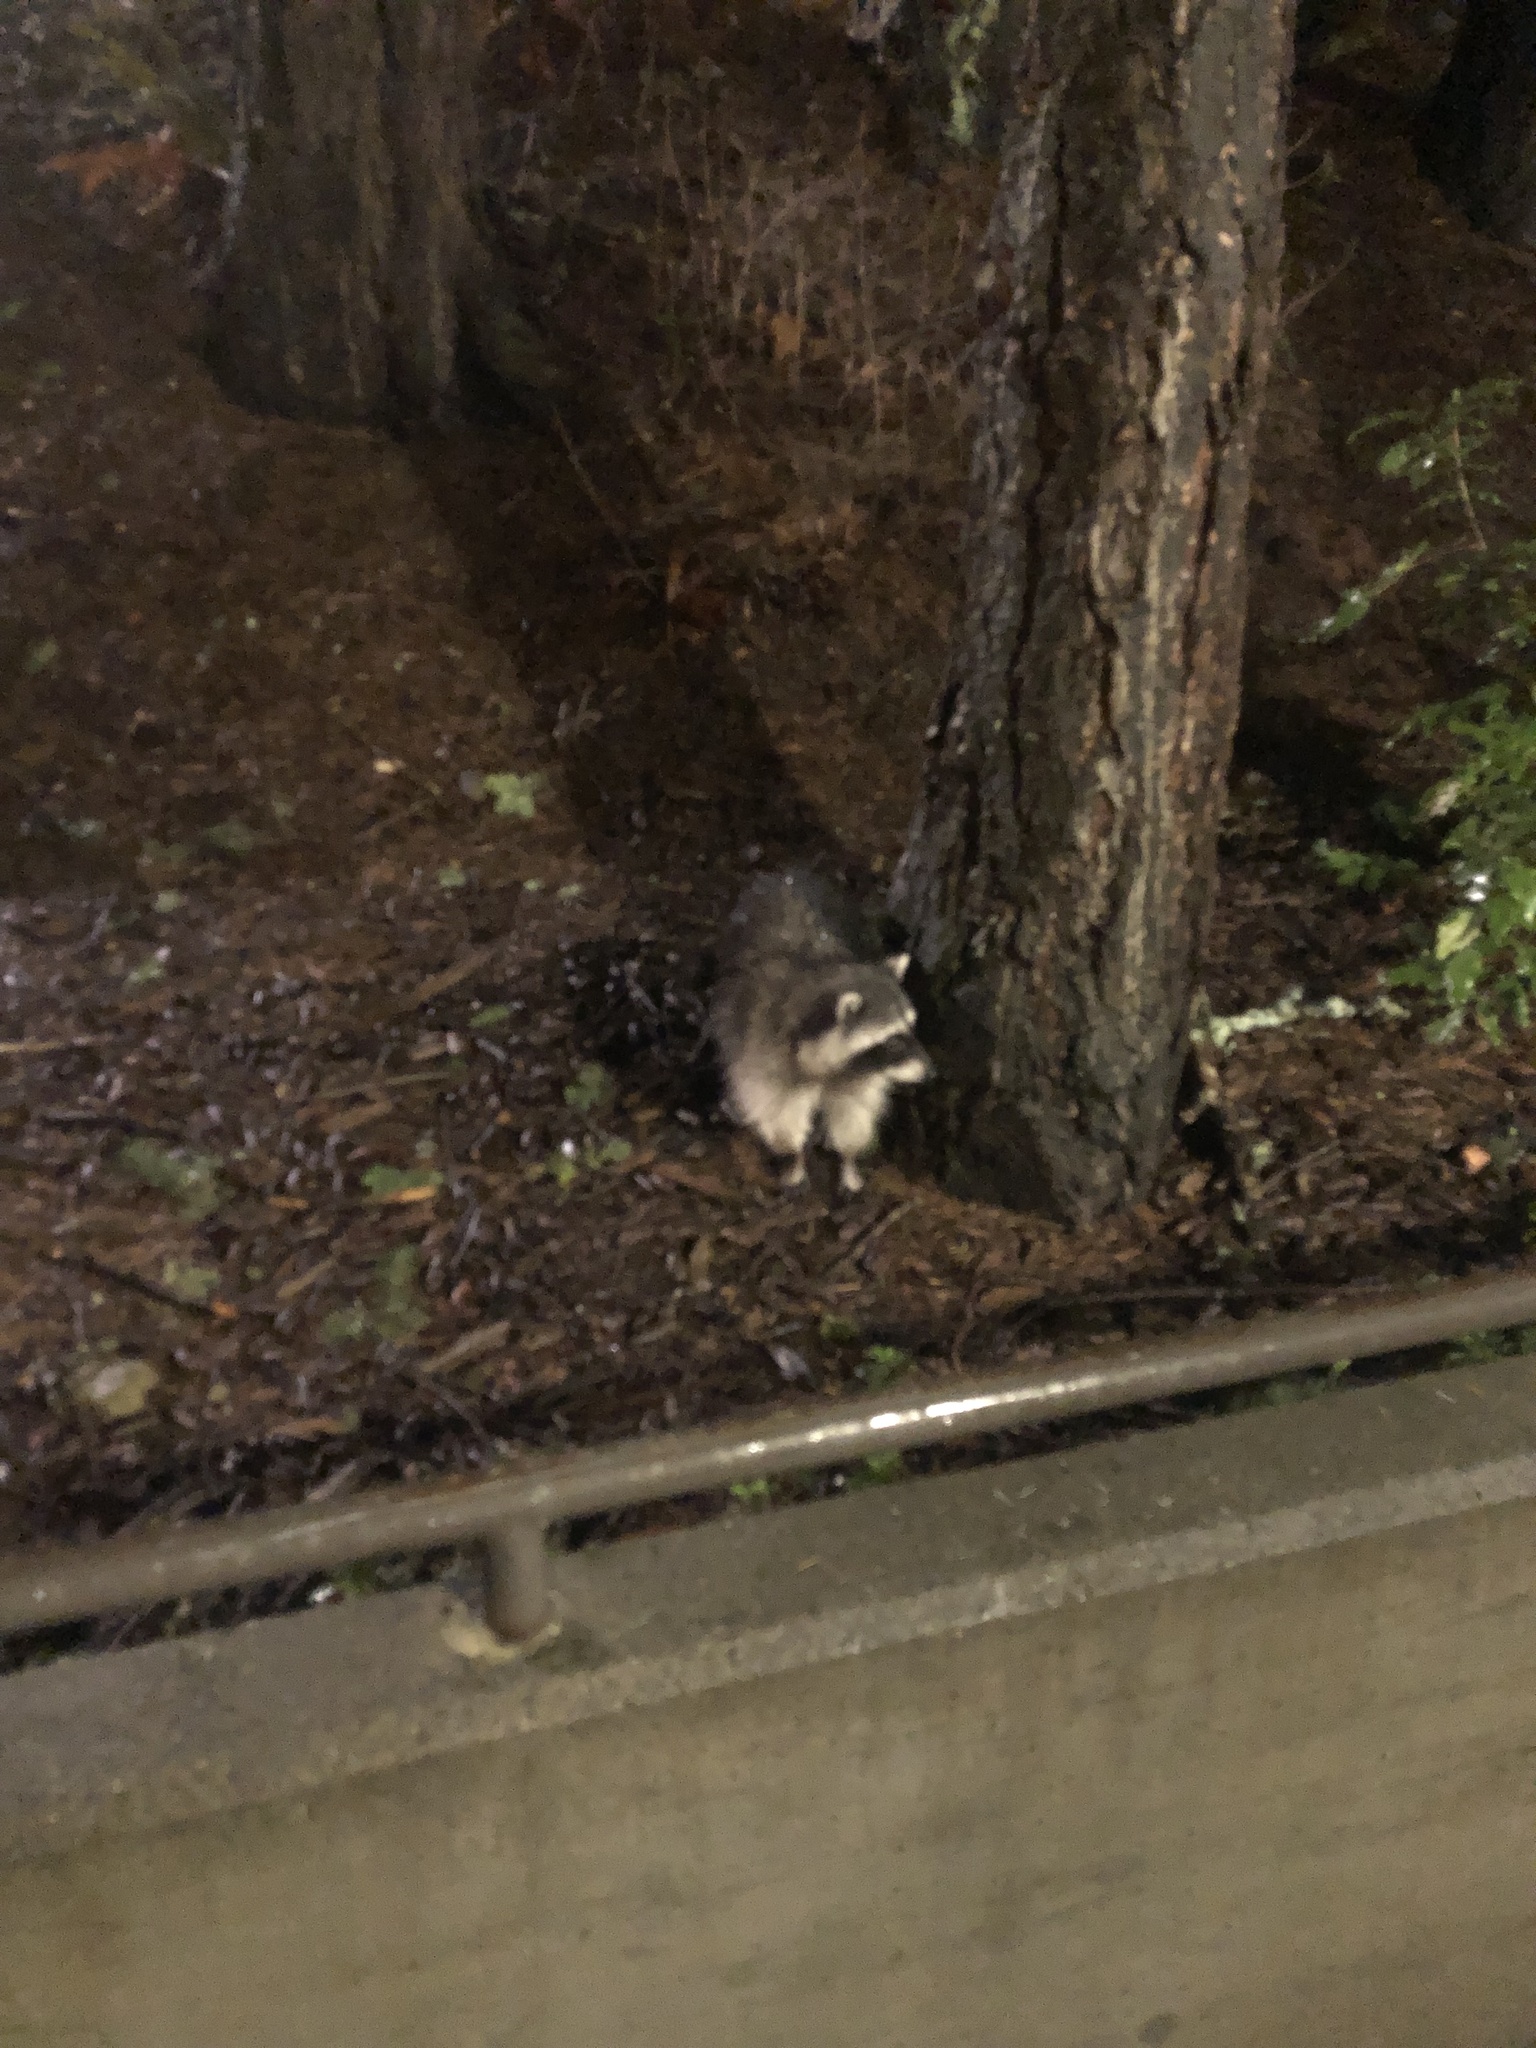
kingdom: Animalia
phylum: Chordata
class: Mammalia
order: Carnivora
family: Procyonidae
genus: Procyon
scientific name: Procyon lotor
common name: Raccoon
